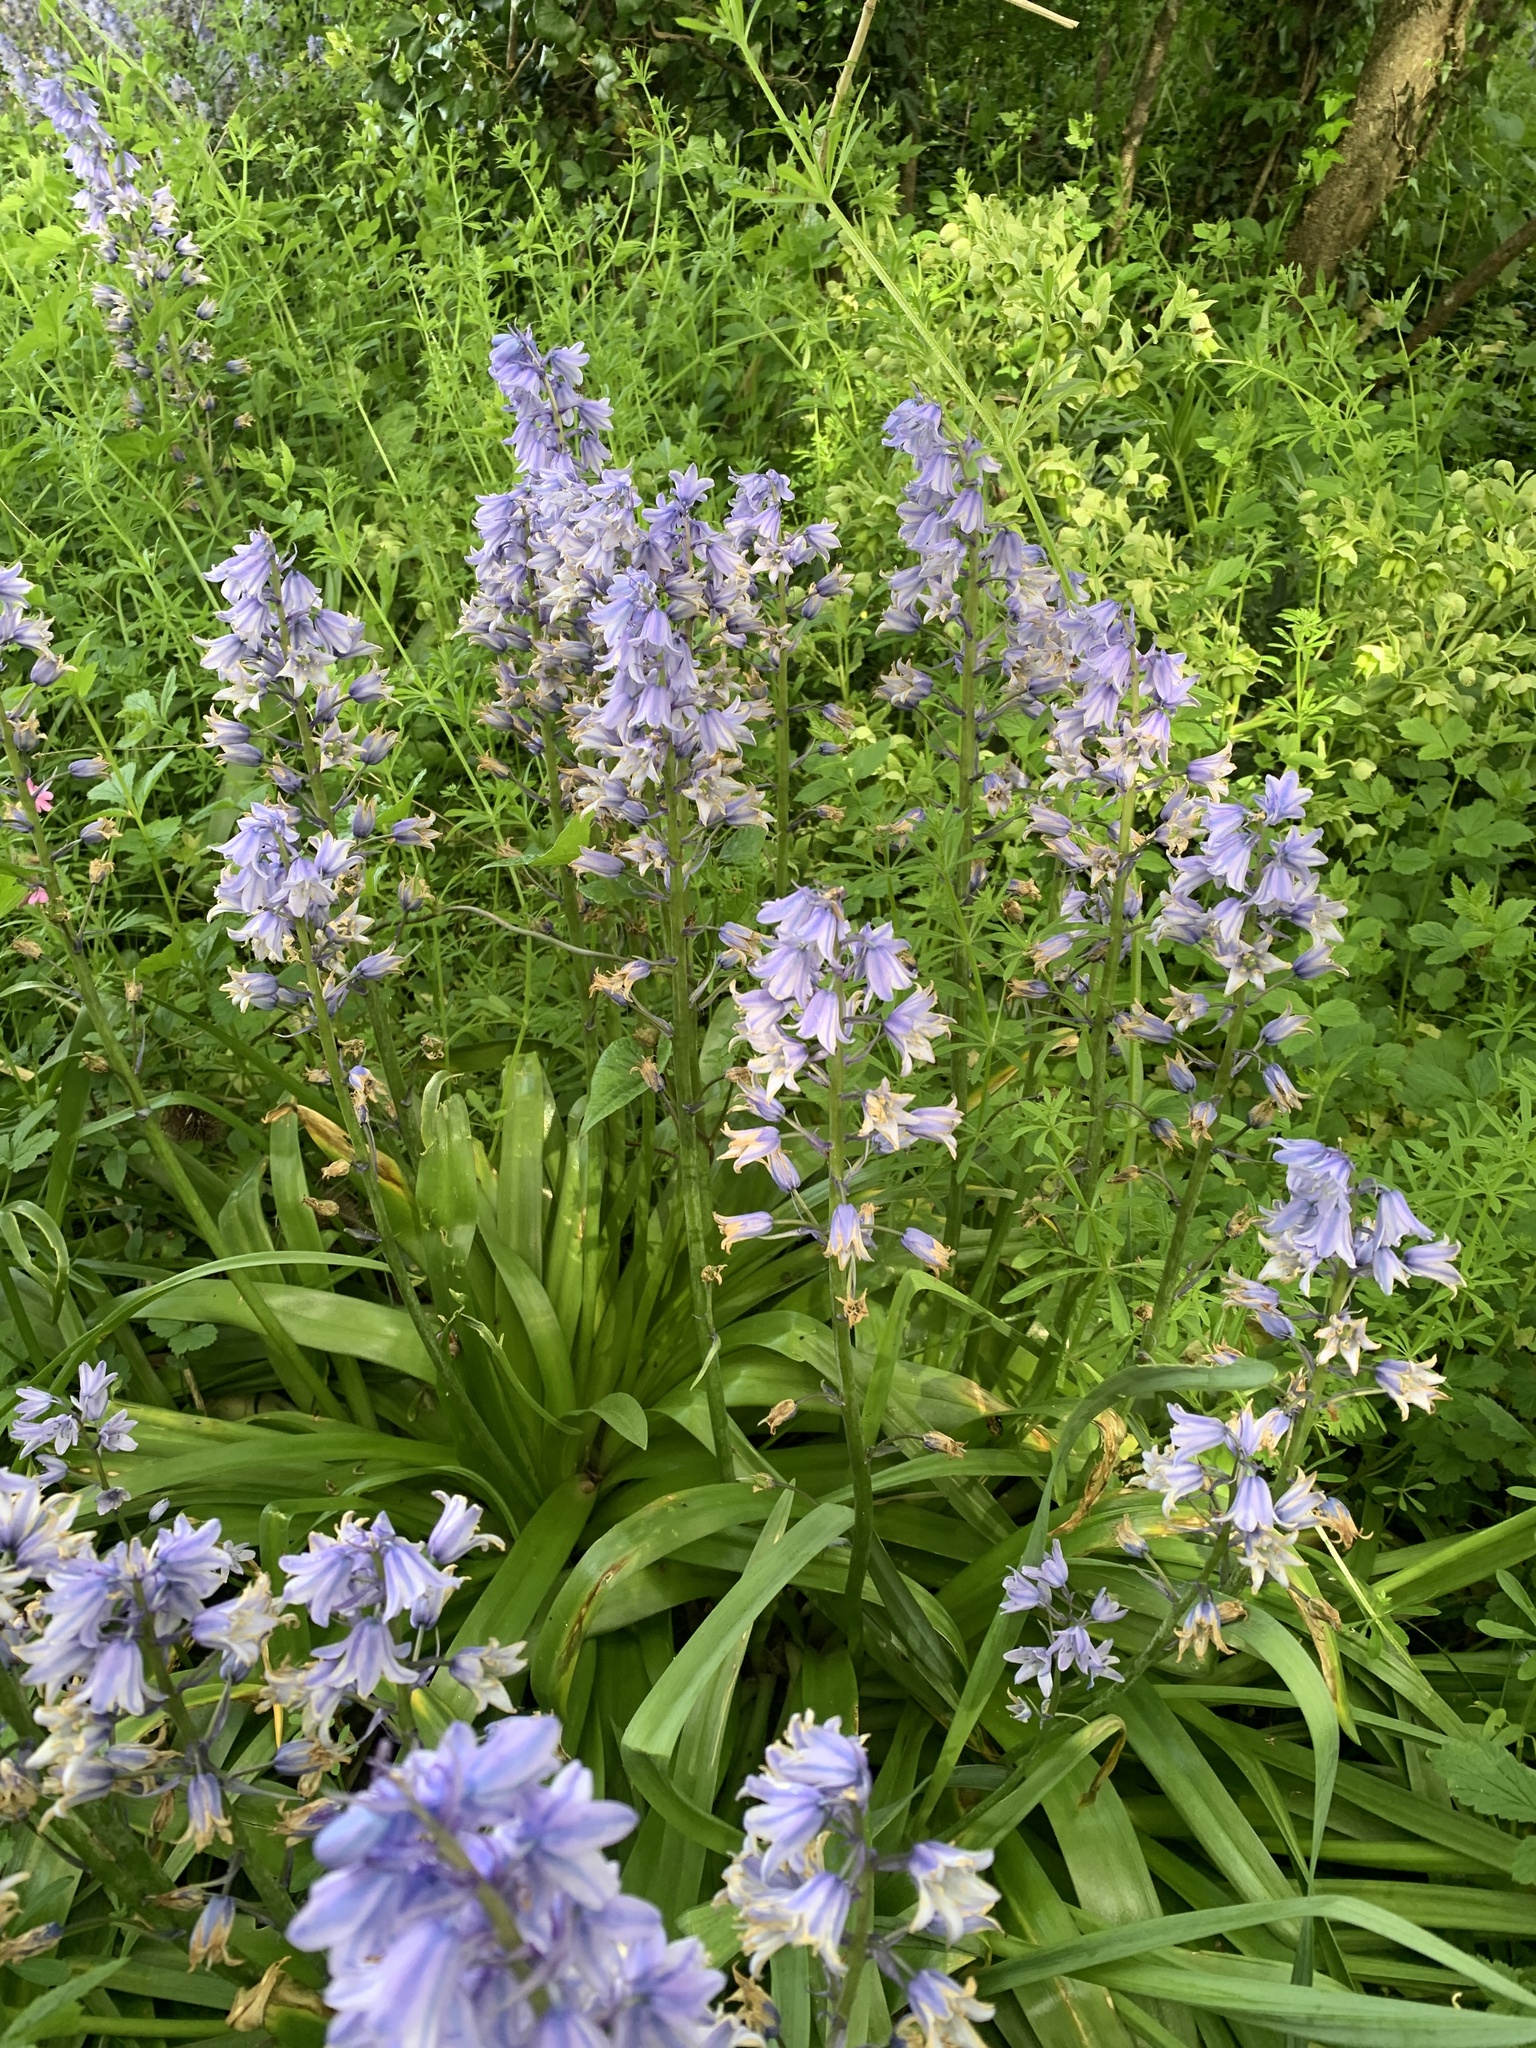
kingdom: Plantae
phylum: Tracheophyta
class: Liliopsida
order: Asparagales
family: Asparagaceae
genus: Hyacinthoides
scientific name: Hyacinthoides non-scripta
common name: Bluebell
